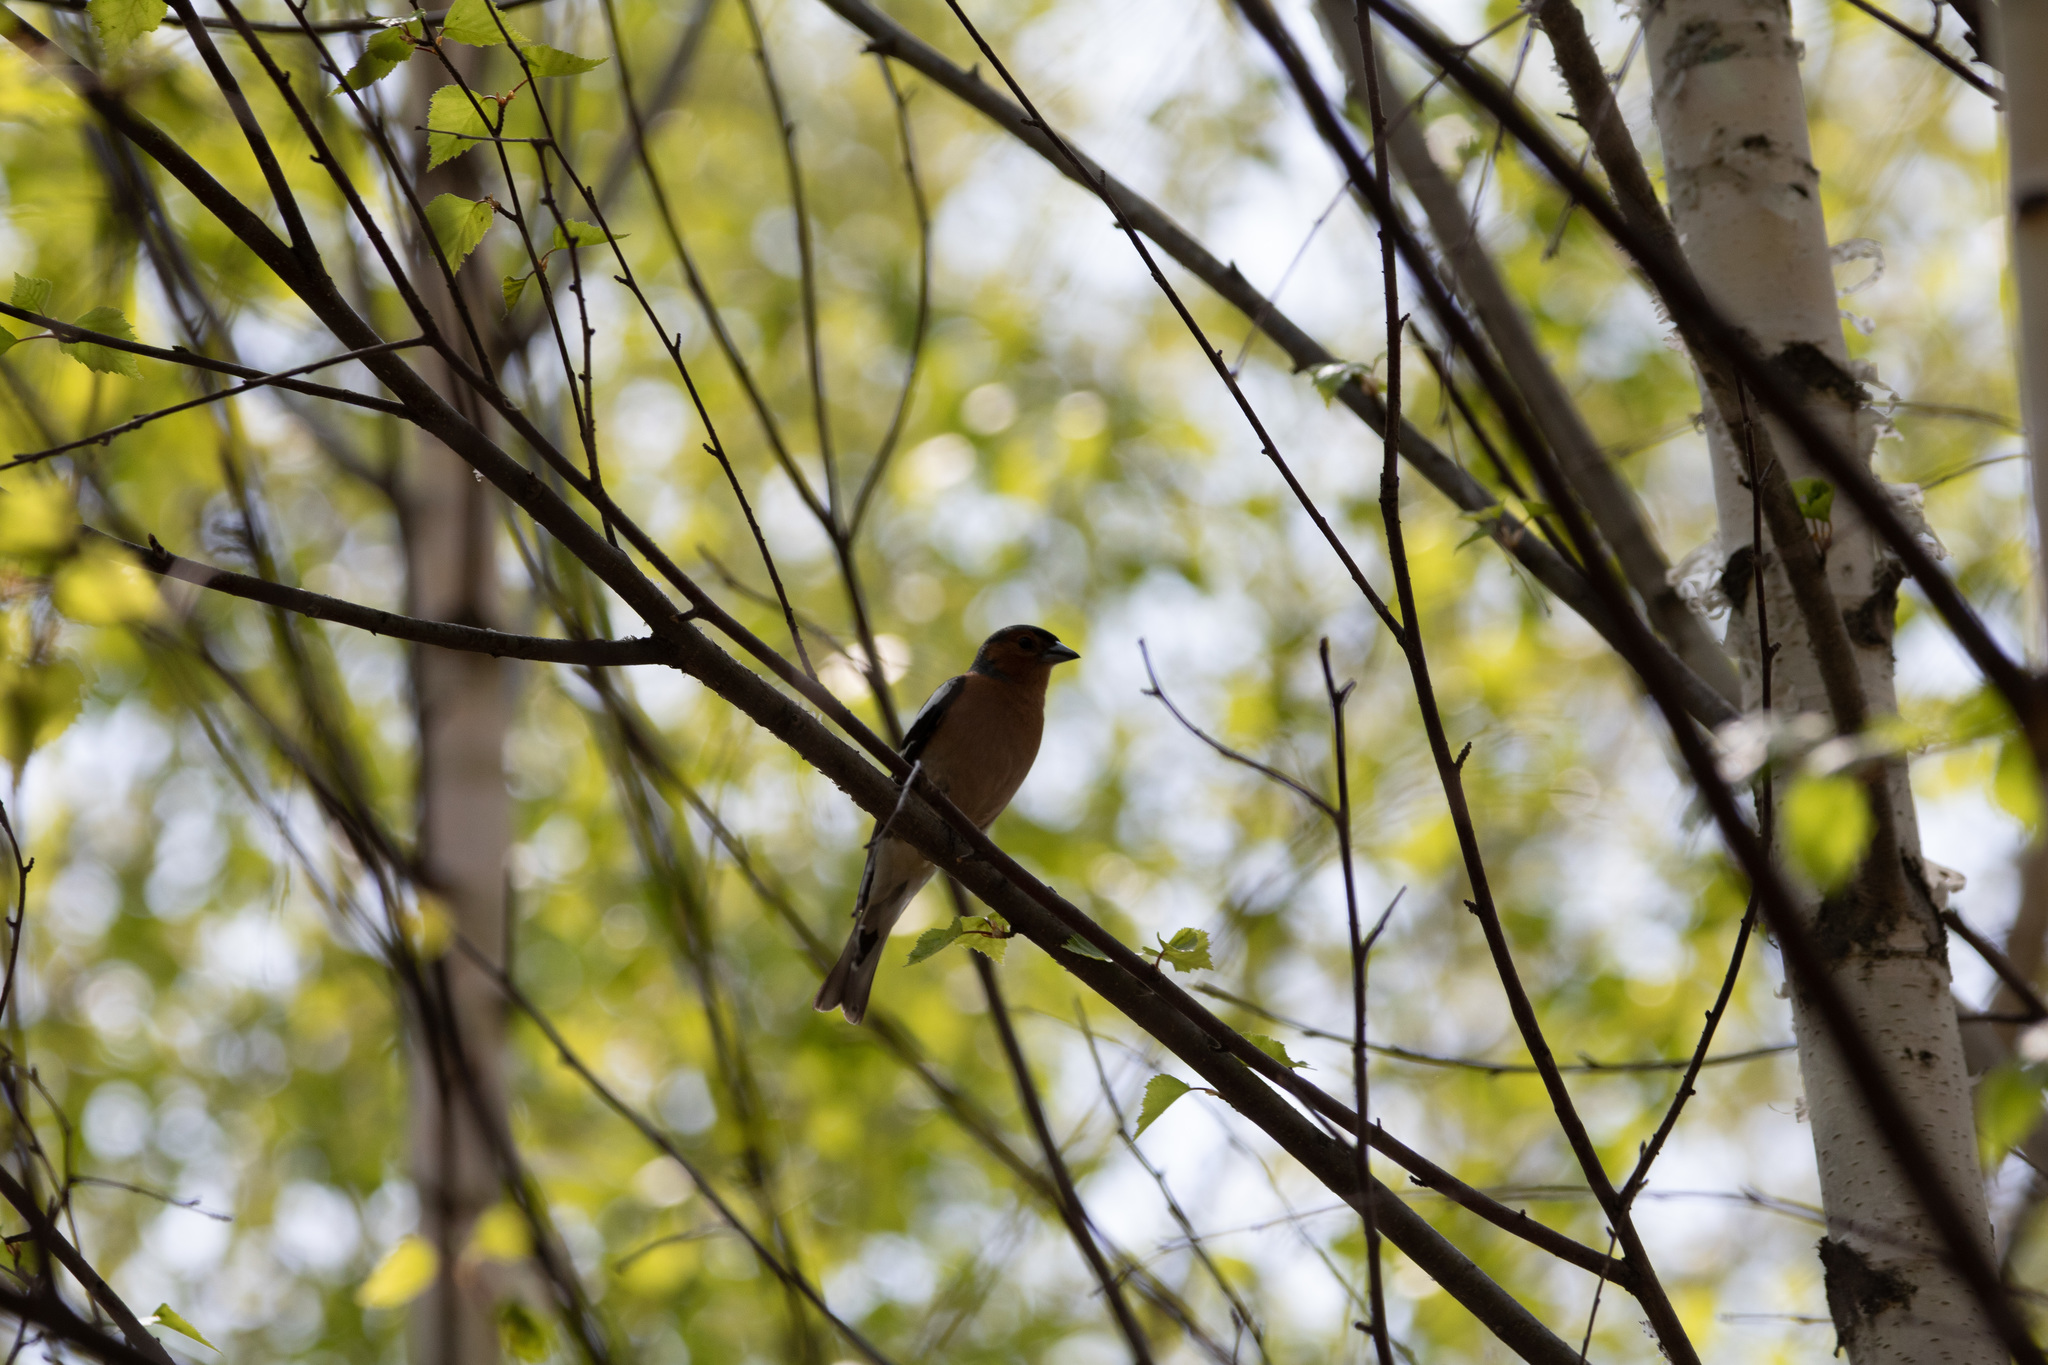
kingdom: Animalia
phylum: Chordata
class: Aves
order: Passeriformes
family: Fringillidae
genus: Fringilla
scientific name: Fringilla coelebs
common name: Common chaffinch
